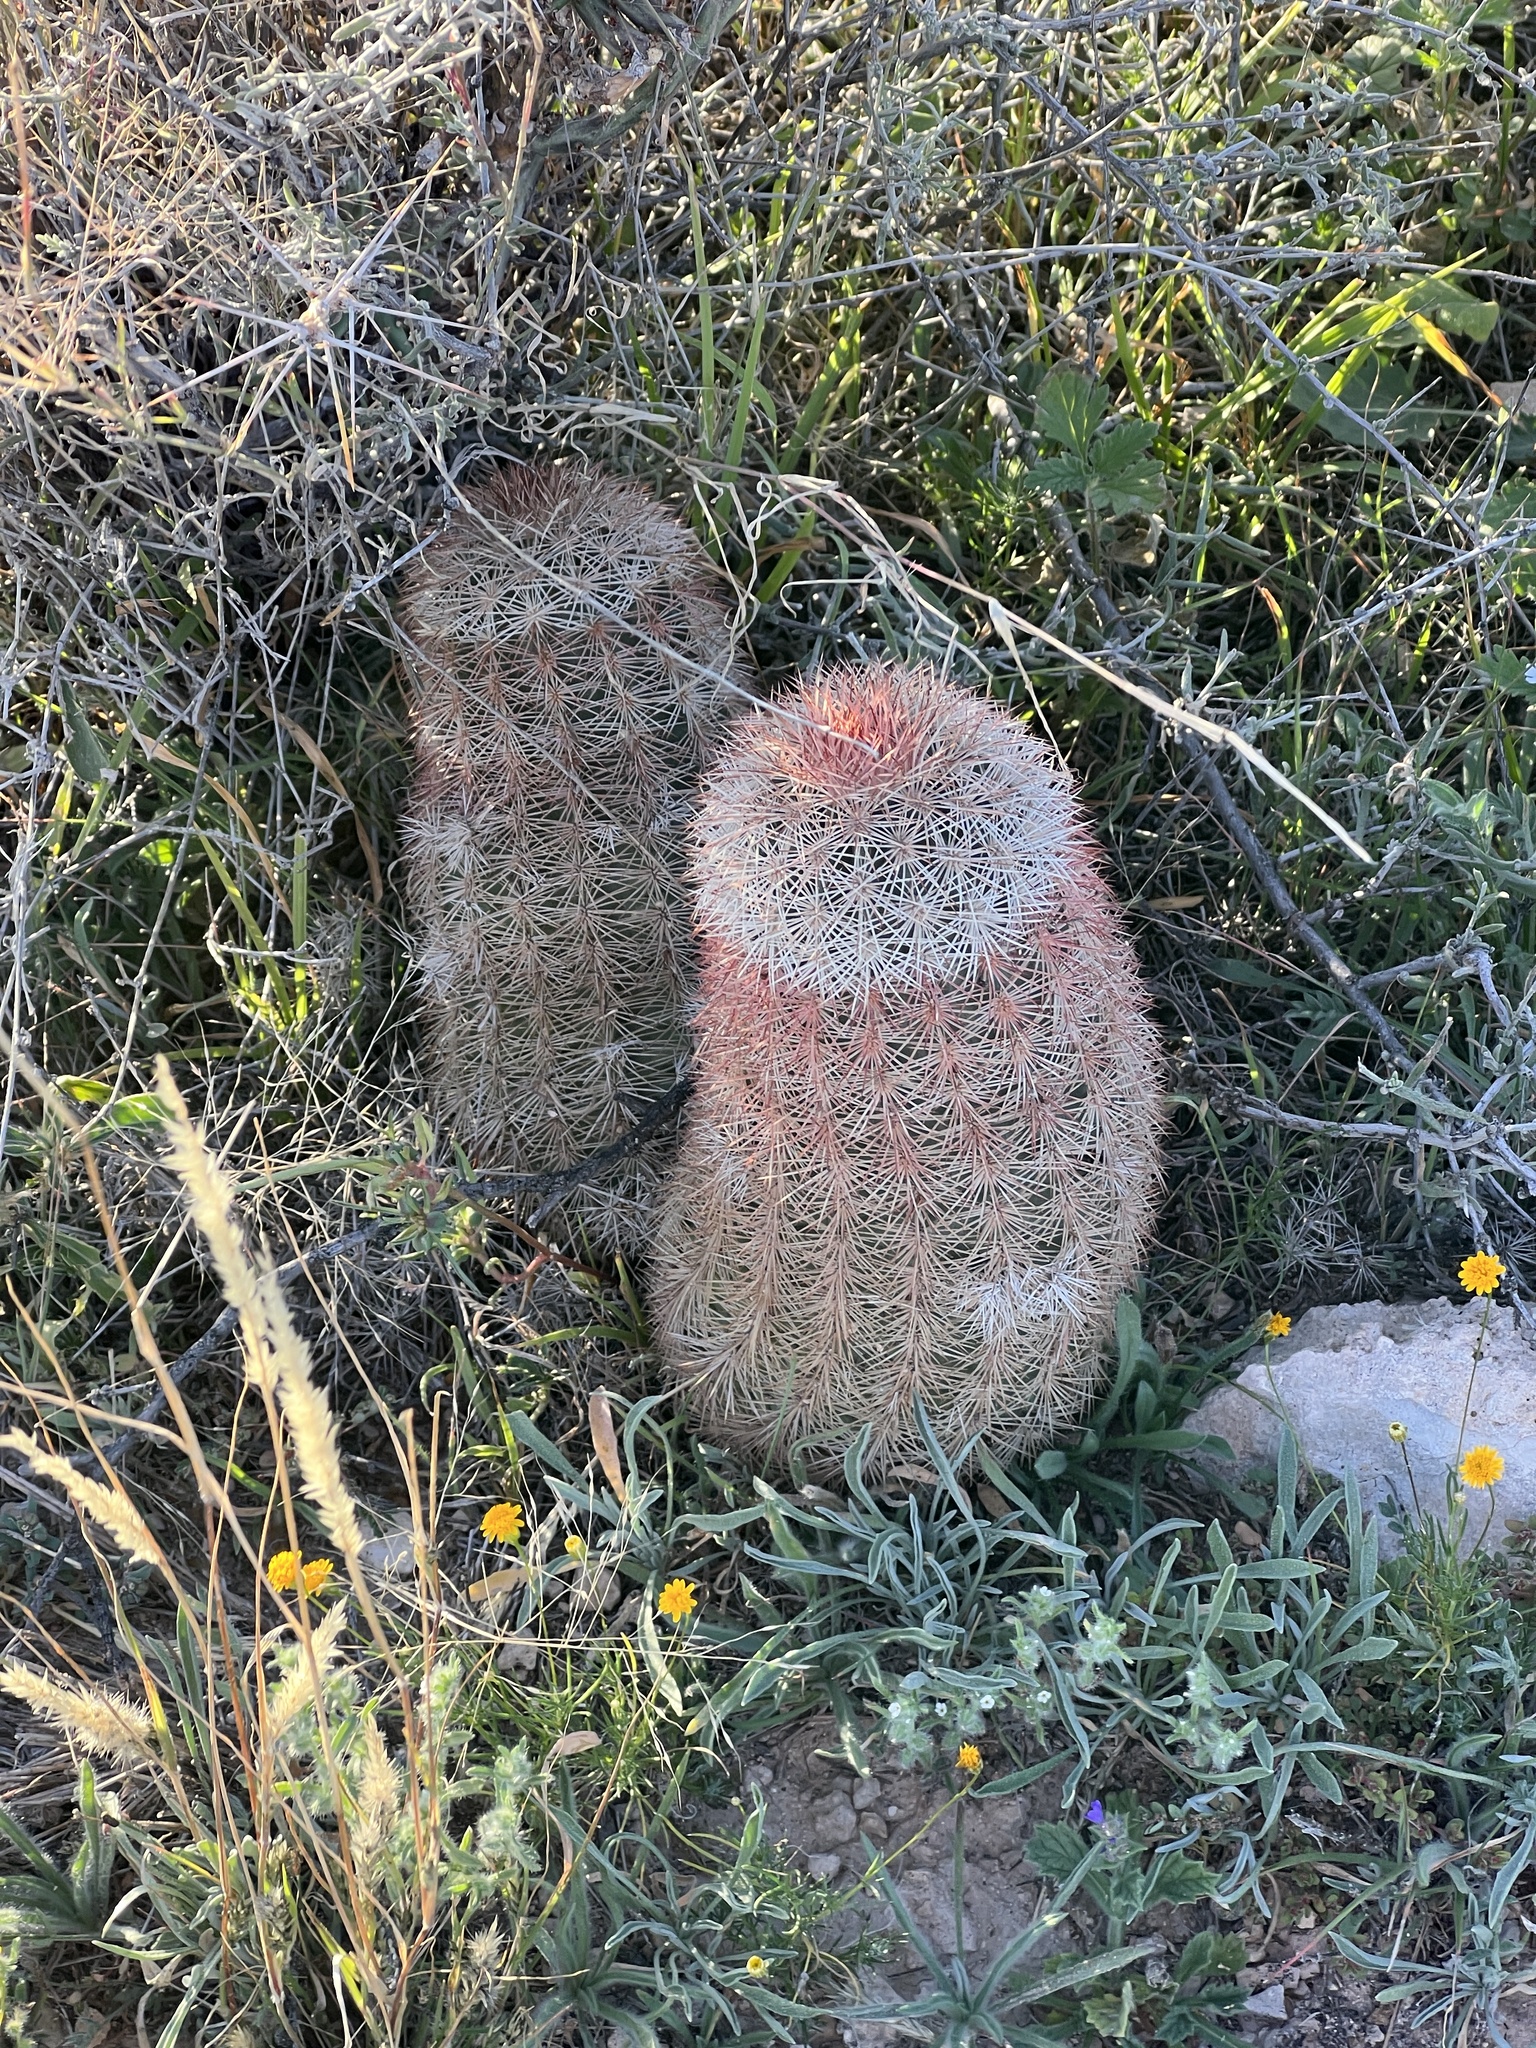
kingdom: Plantae
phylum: Tracheophyta
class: Magnoliopsida
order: Caryophyllales
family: Cactaceae
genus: Echinocereus
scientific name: Echinocereus dasyacanthus
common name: Spiny hedgehog cactus
